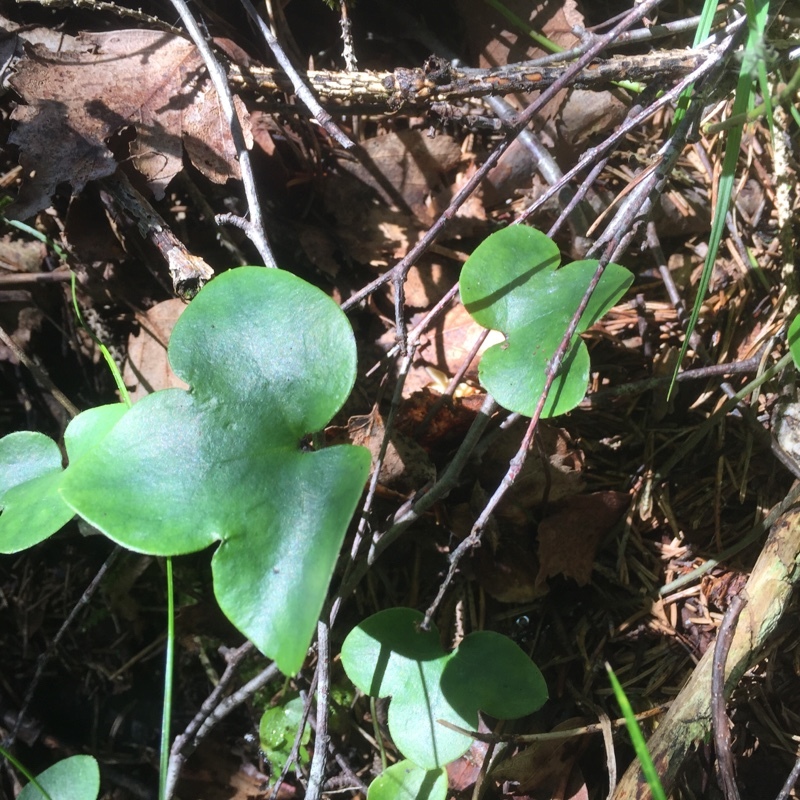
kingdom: Plantae
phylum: Tracheophyta
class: Magnoliopsida
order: Ranunculales
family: Ranunculaceae
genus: Hepatica
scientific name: Hepatica nobilis
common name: Liverleaf
